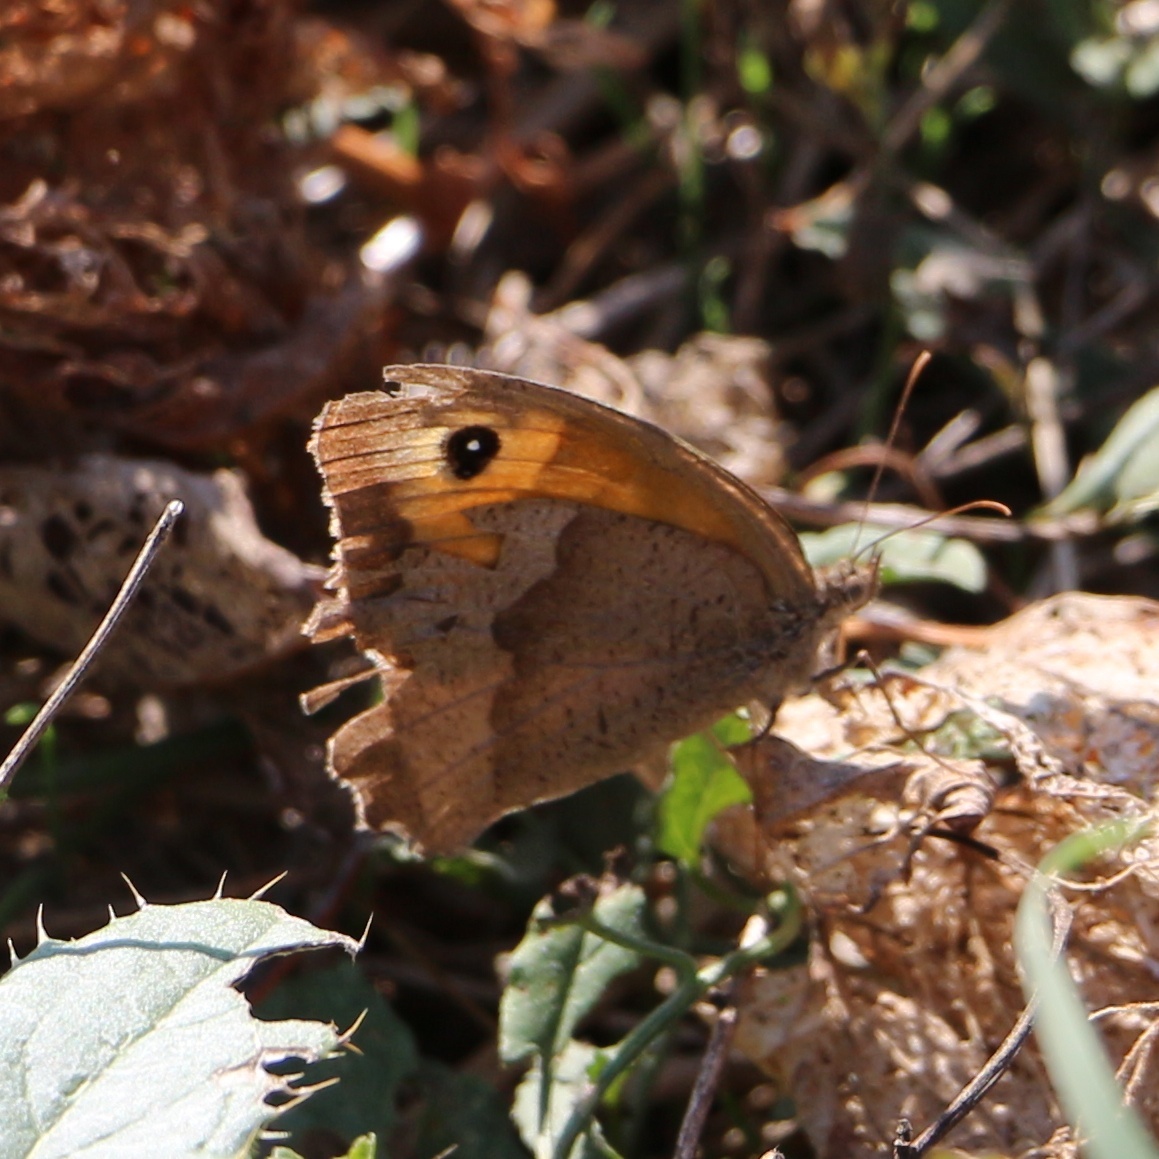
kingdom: Animalia
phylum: Arthropoda
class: Insecta
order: Lepidoptera
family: Nymphalidae
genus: Maniola
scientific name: Maniola jurtina
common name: Meadow brown
